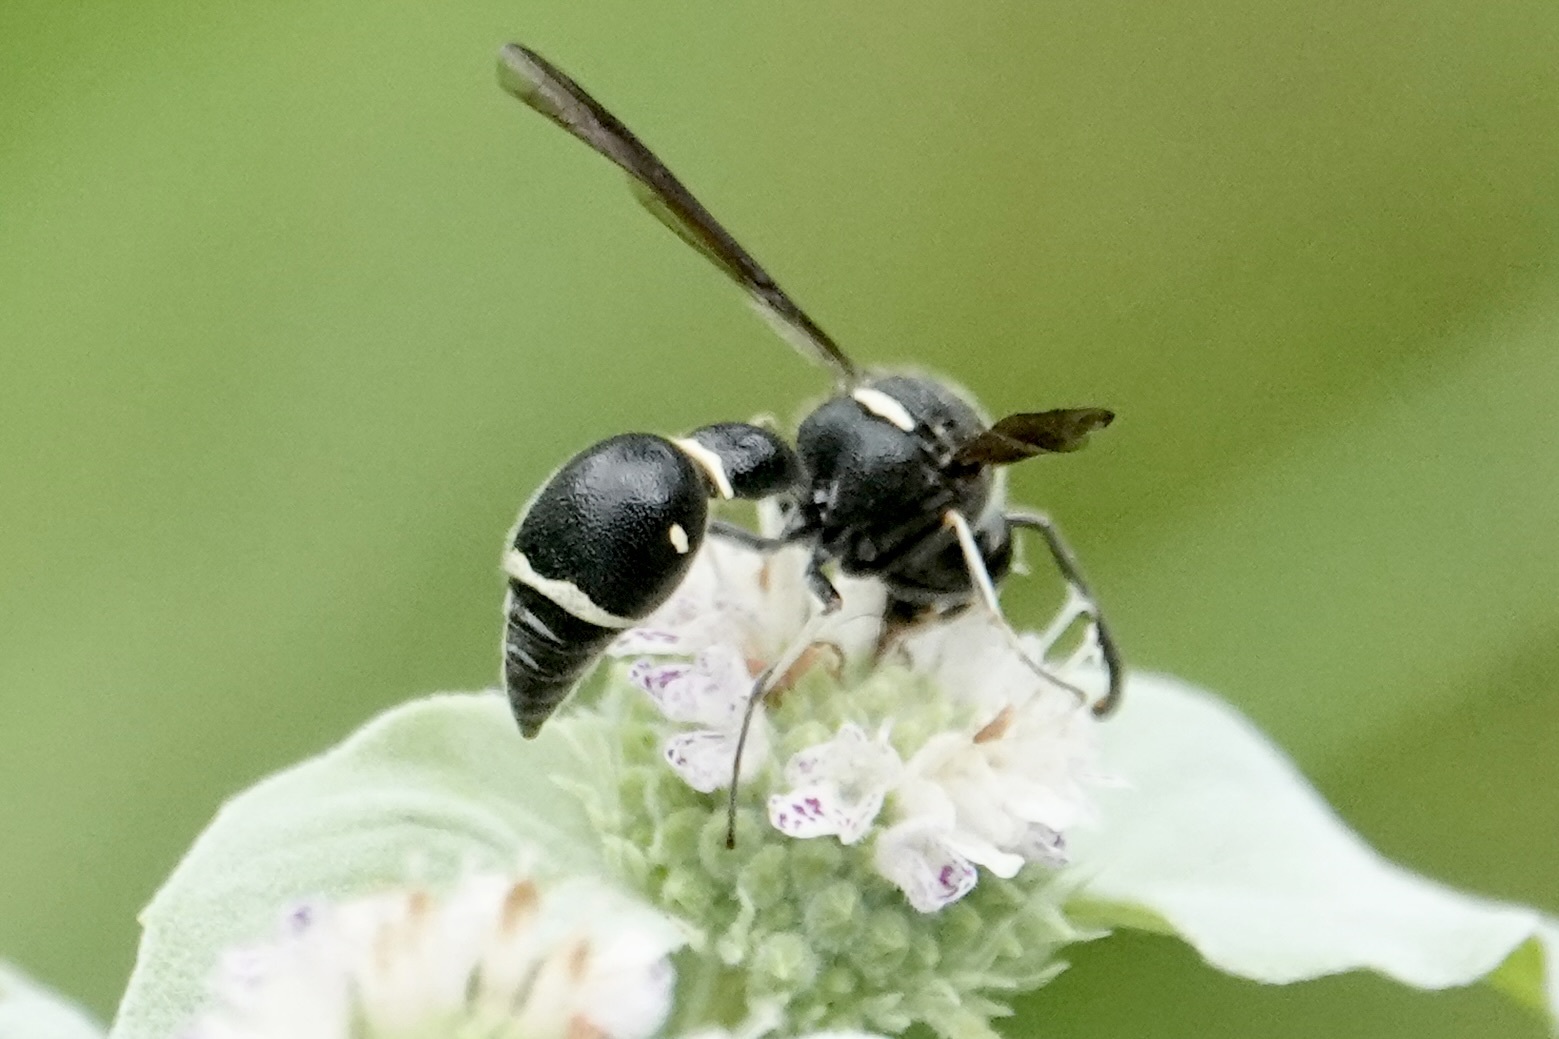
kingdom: Animalia
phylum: Arthropoda
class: Insecta
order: Hymenoptera
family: Vespidae
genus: Eumenes
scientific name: Eumenes fraternus
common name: Fraternal potter wasp
